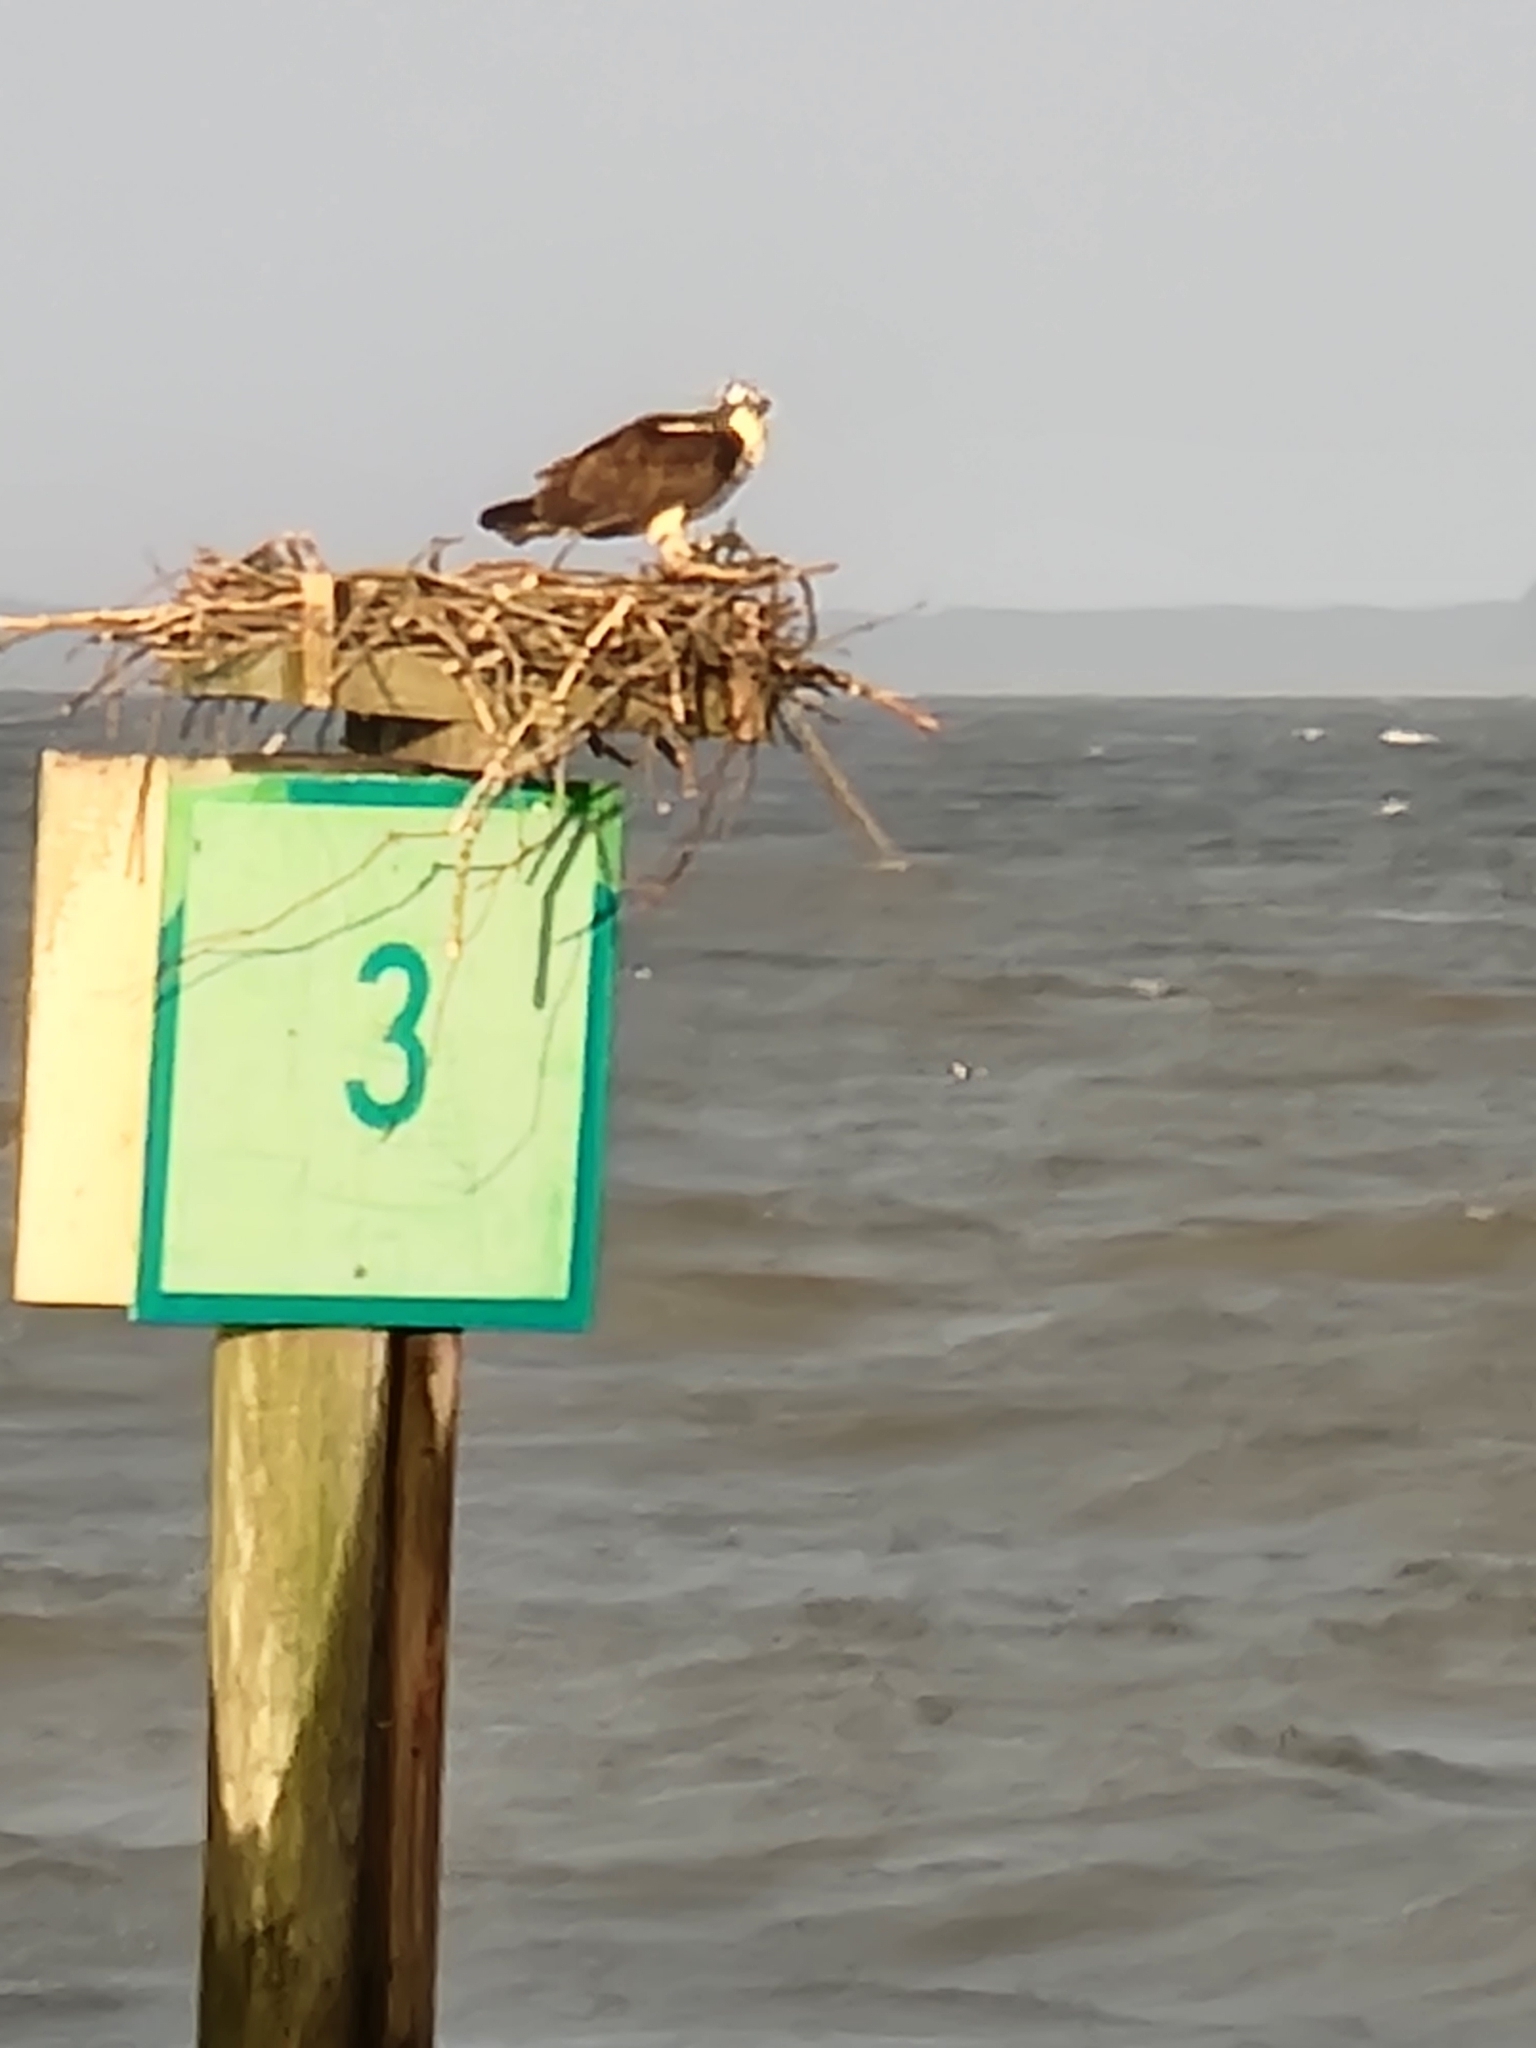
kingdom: Animalia
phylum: Chordata
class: Aves
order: Accipitriformes
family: Pandionidae
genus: Pandion
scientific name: Pandion haliaetus
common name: Osprey
